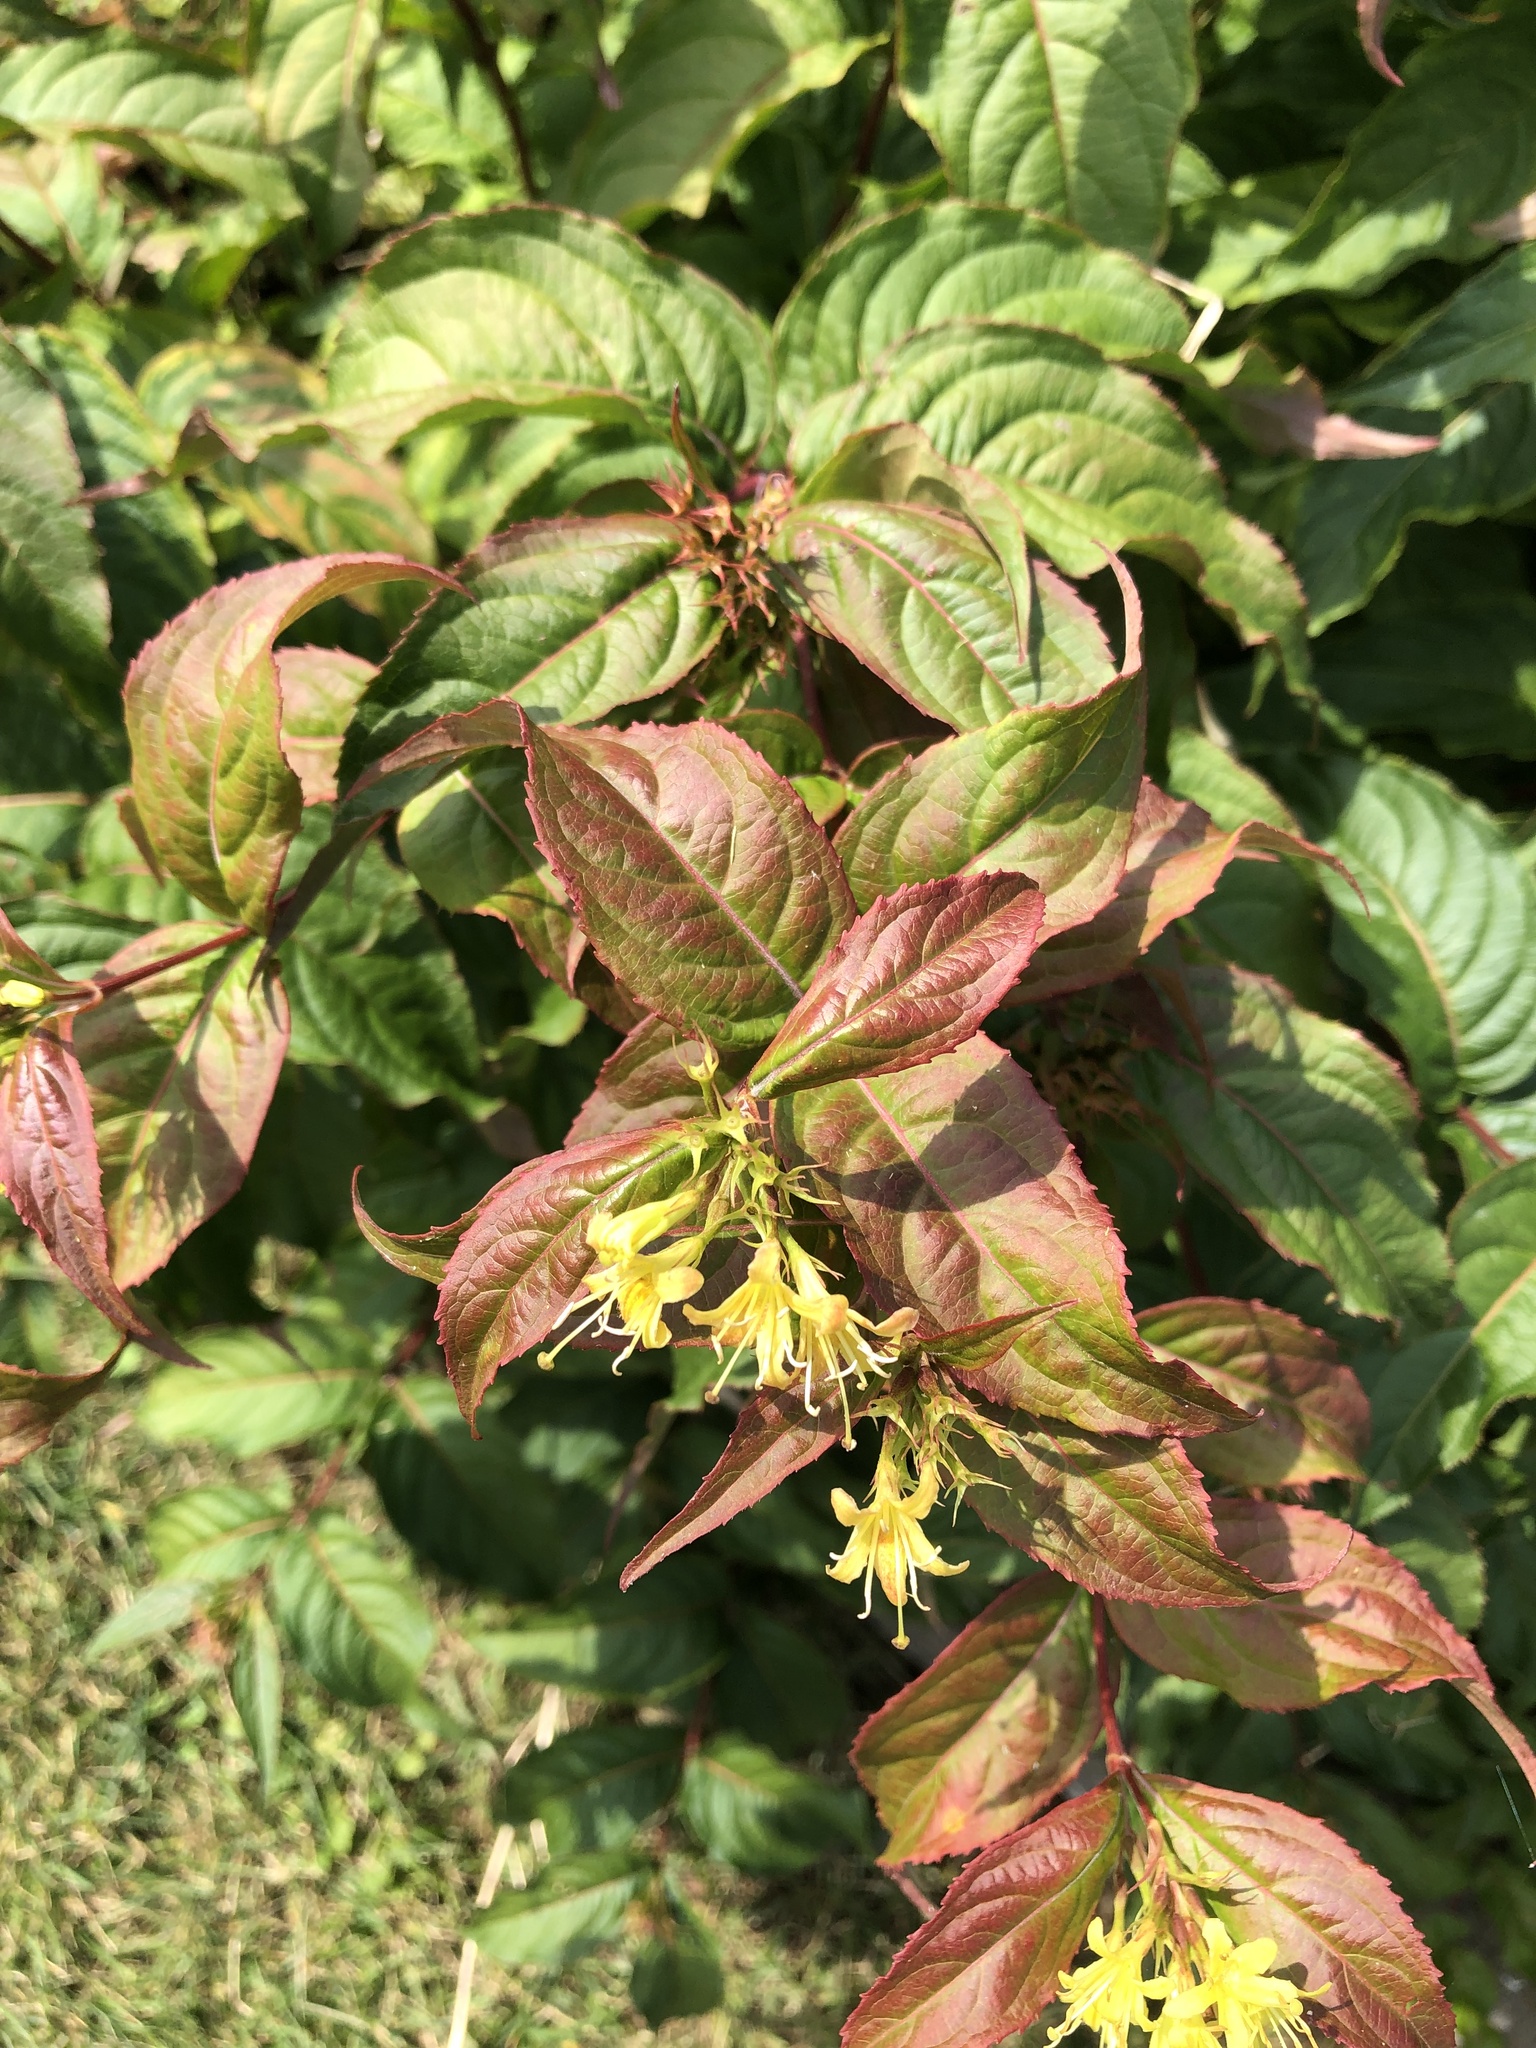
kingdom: Plantae
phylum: Tracheophyta
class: Magnoliopsida
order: Dipsacales
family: Caprifoliaceae
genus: Diervilla
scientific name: Diervilla lonicera
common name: Bush-honeysuckle
